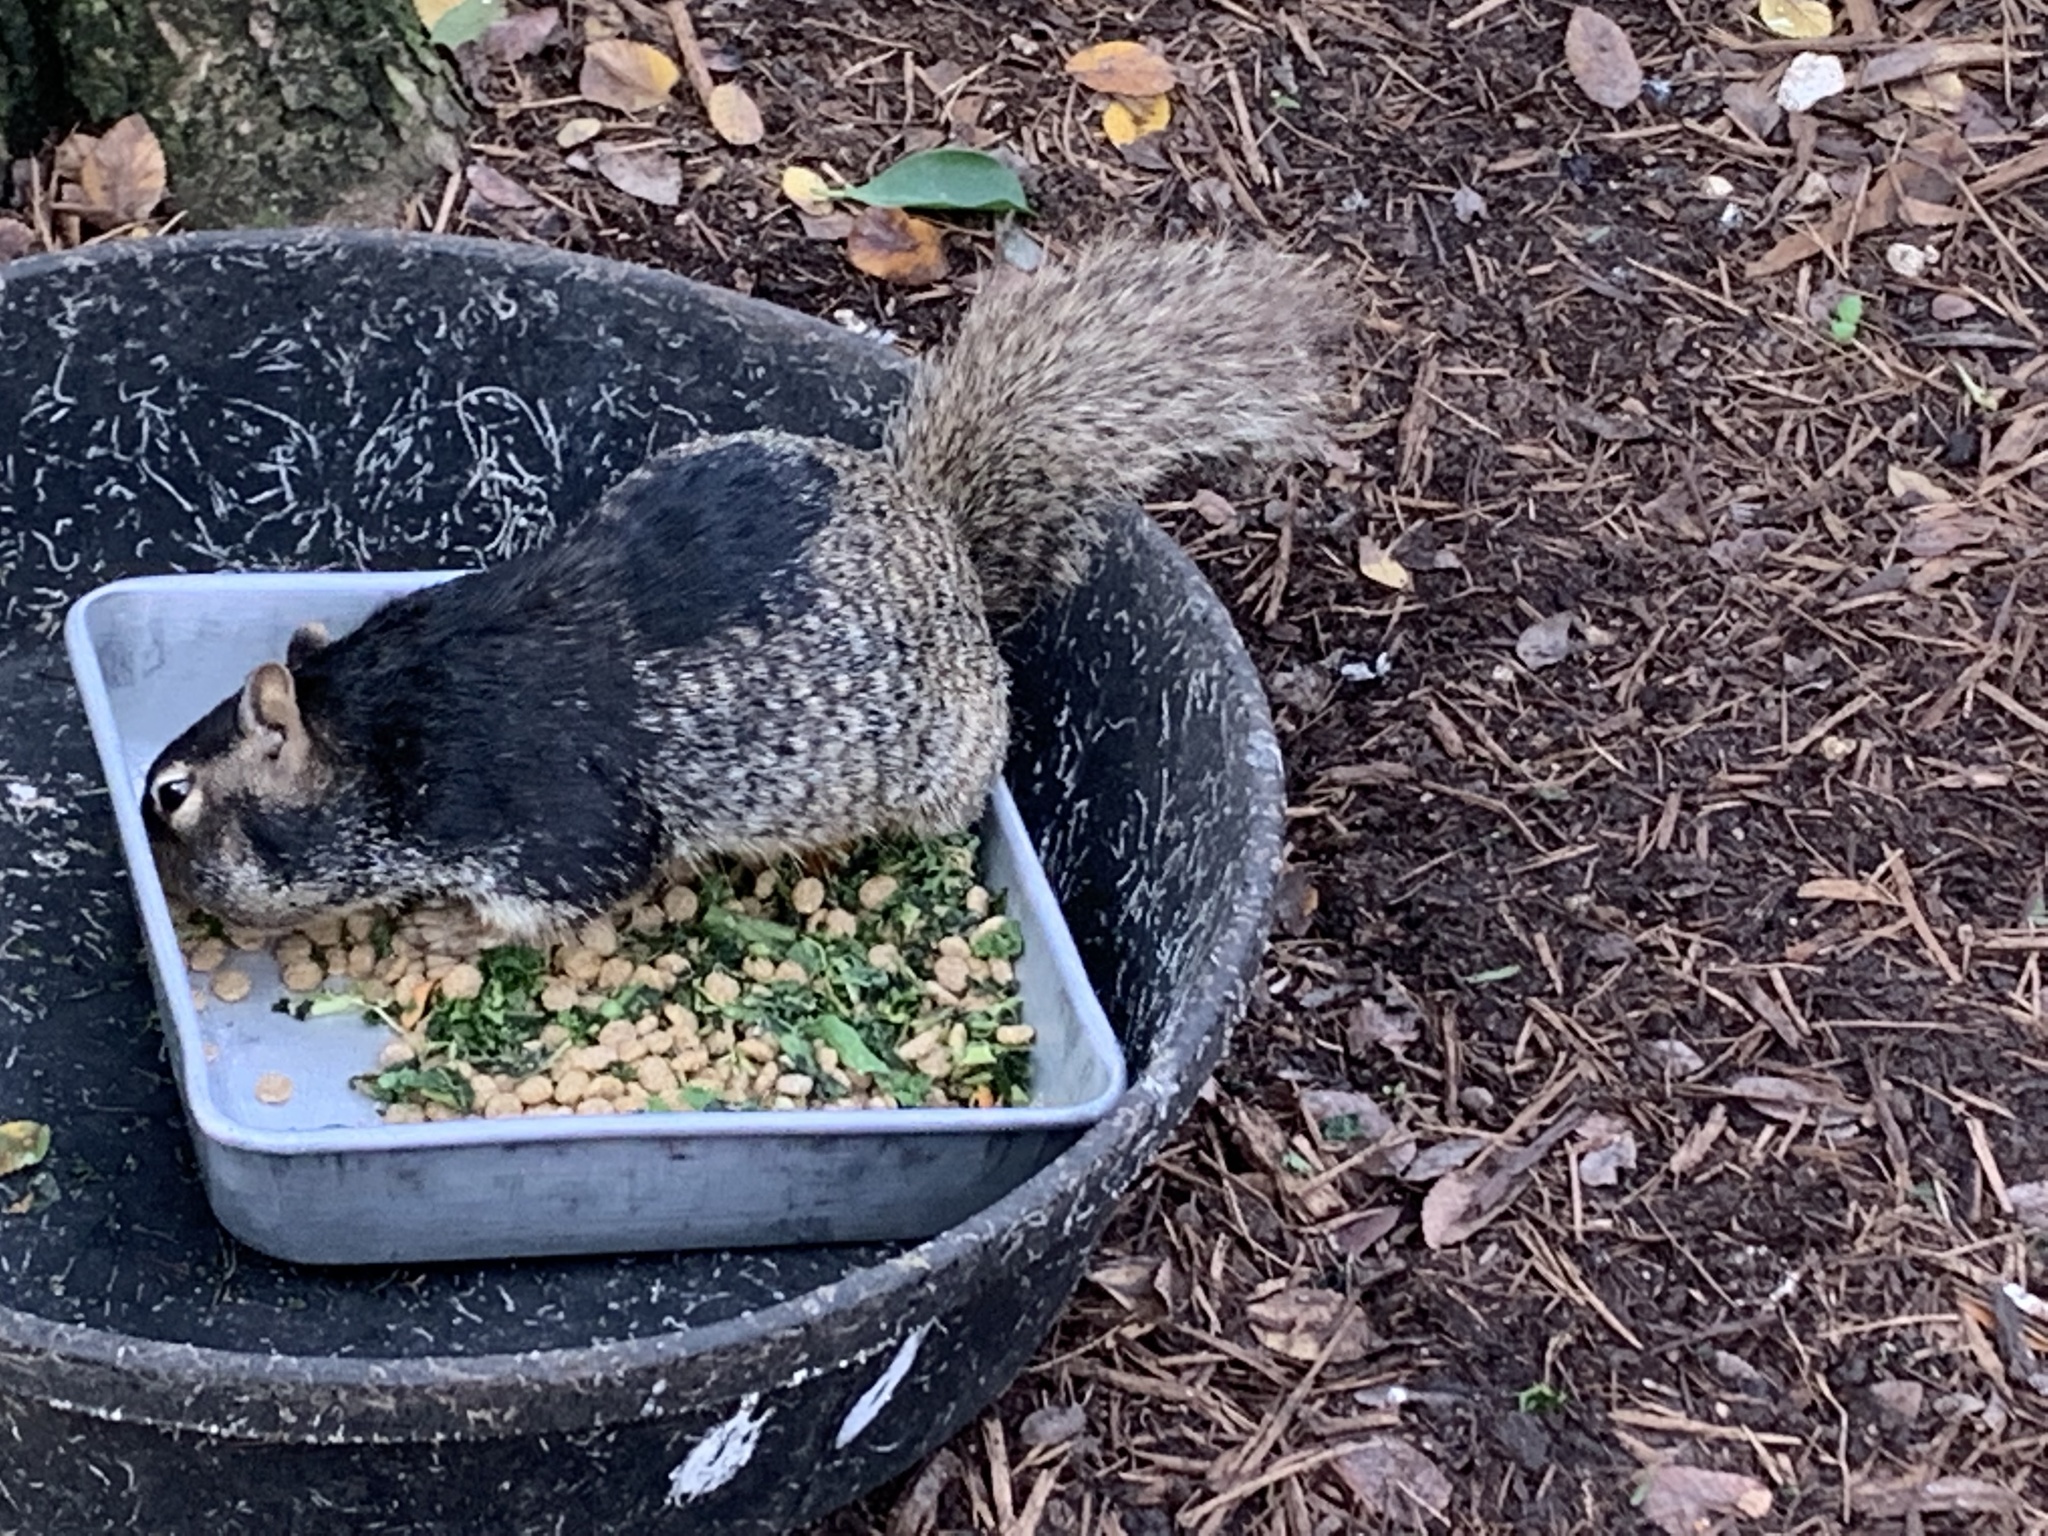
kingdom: Animalia
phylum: Chordata
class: Mammalia
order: Rodentia
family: Sciuridae
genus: Otospermophilus
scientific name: Otospermophilus variegatus
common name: Rock squirrel
